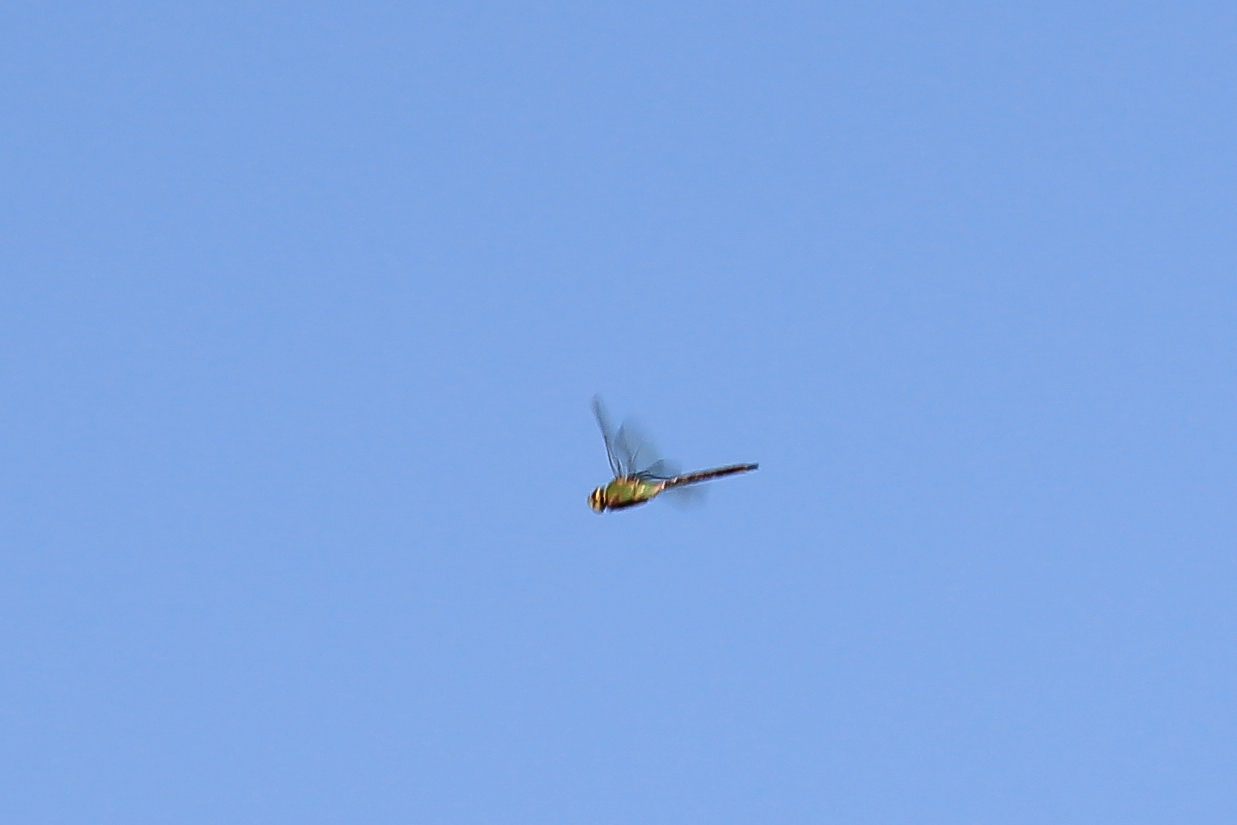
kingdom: Animalia
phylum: Arthropoda
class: Insecta
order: Odonata
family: Aeshnidae
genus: Anax
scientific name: Anax junius
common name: Common green darner
